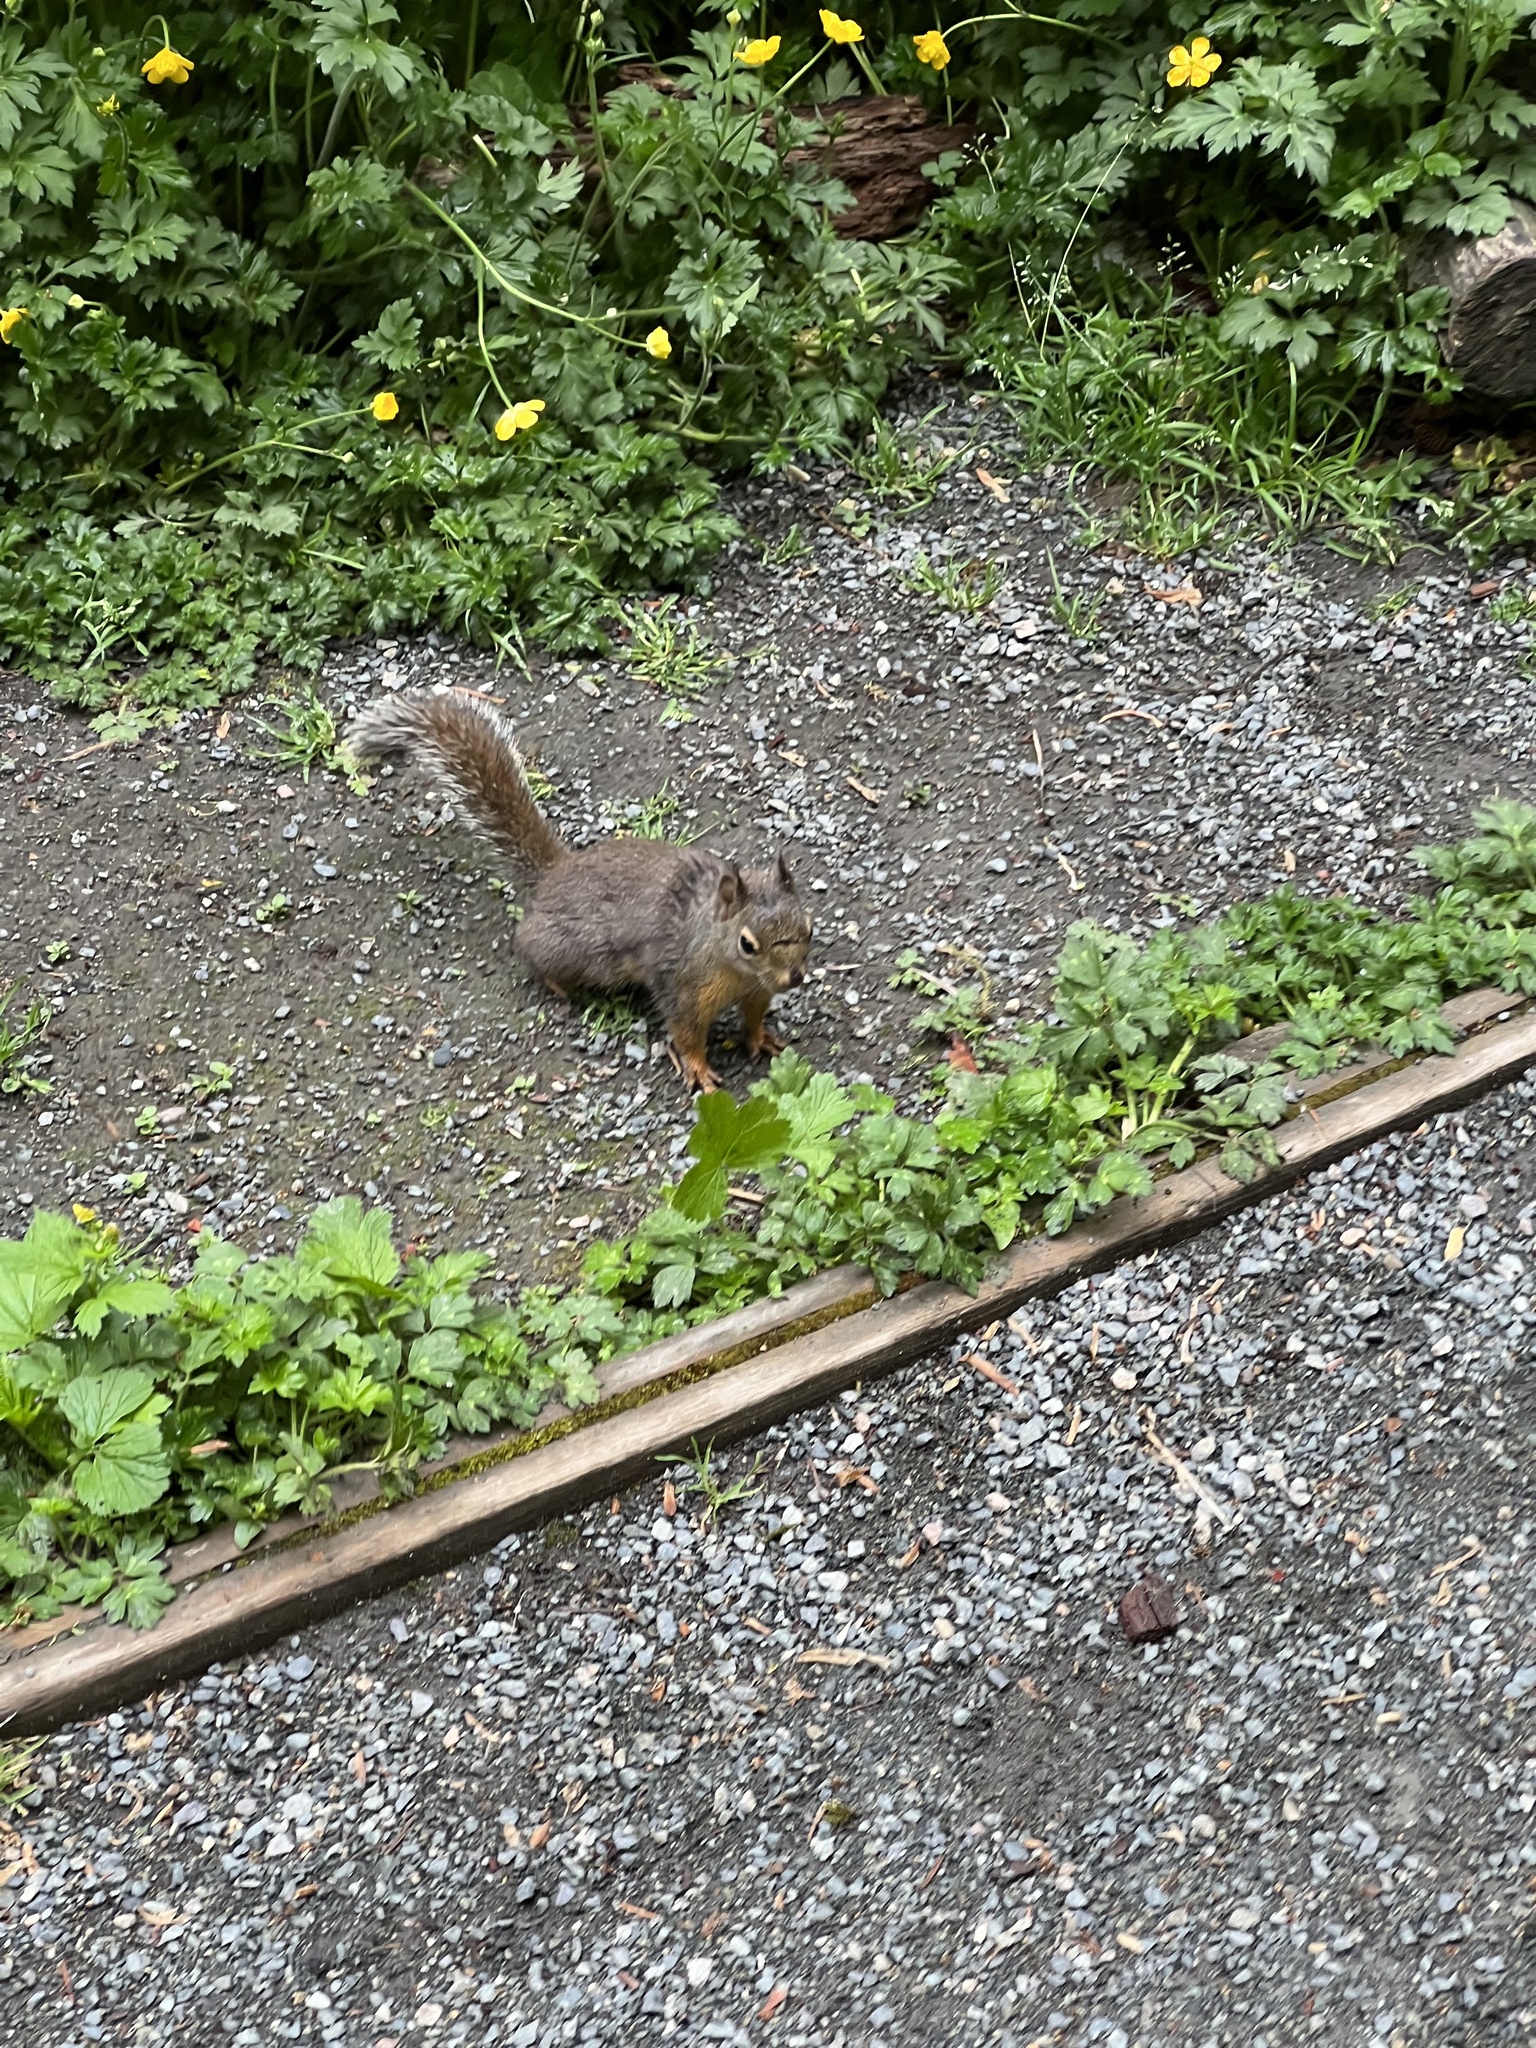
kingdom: Animalia
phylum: Chordata
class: Mammalia
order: Rodentia
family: Sciuridae
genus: Tamiasciurus
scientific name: Tamiasciurus douglasii
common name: Douglas's squirrel
